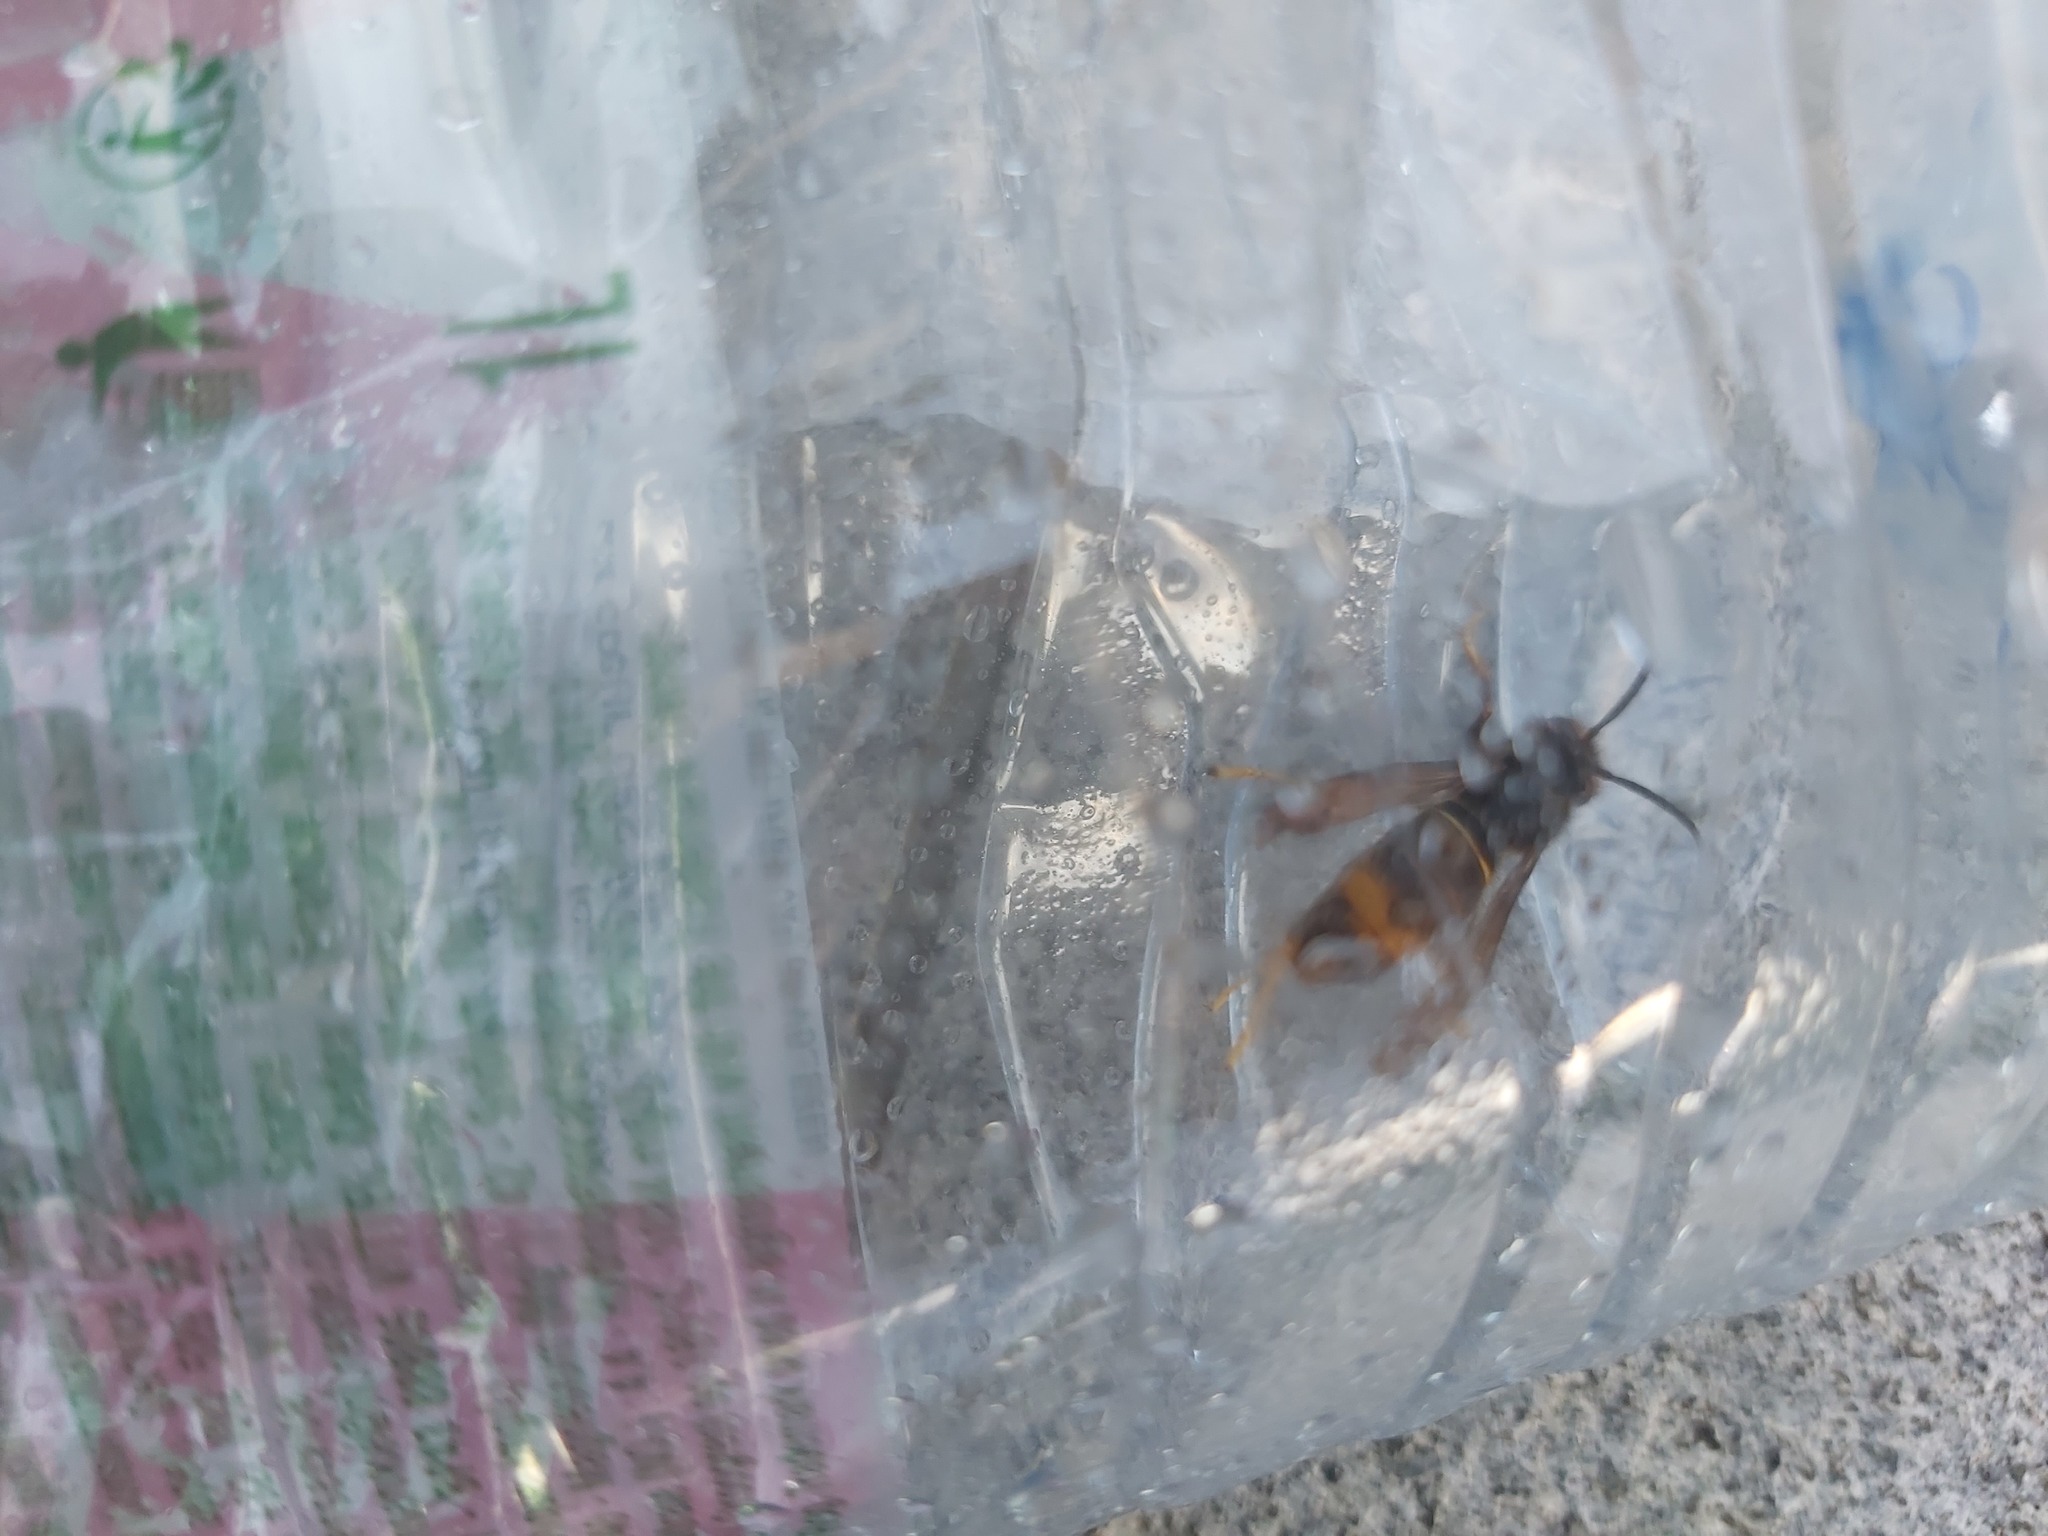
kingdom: Animalia
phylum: Arthropoda
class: Insecta
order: Hymenoptera
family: Vespidae
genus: Vespa
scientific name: Vespa velutina
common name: Asian hornet
